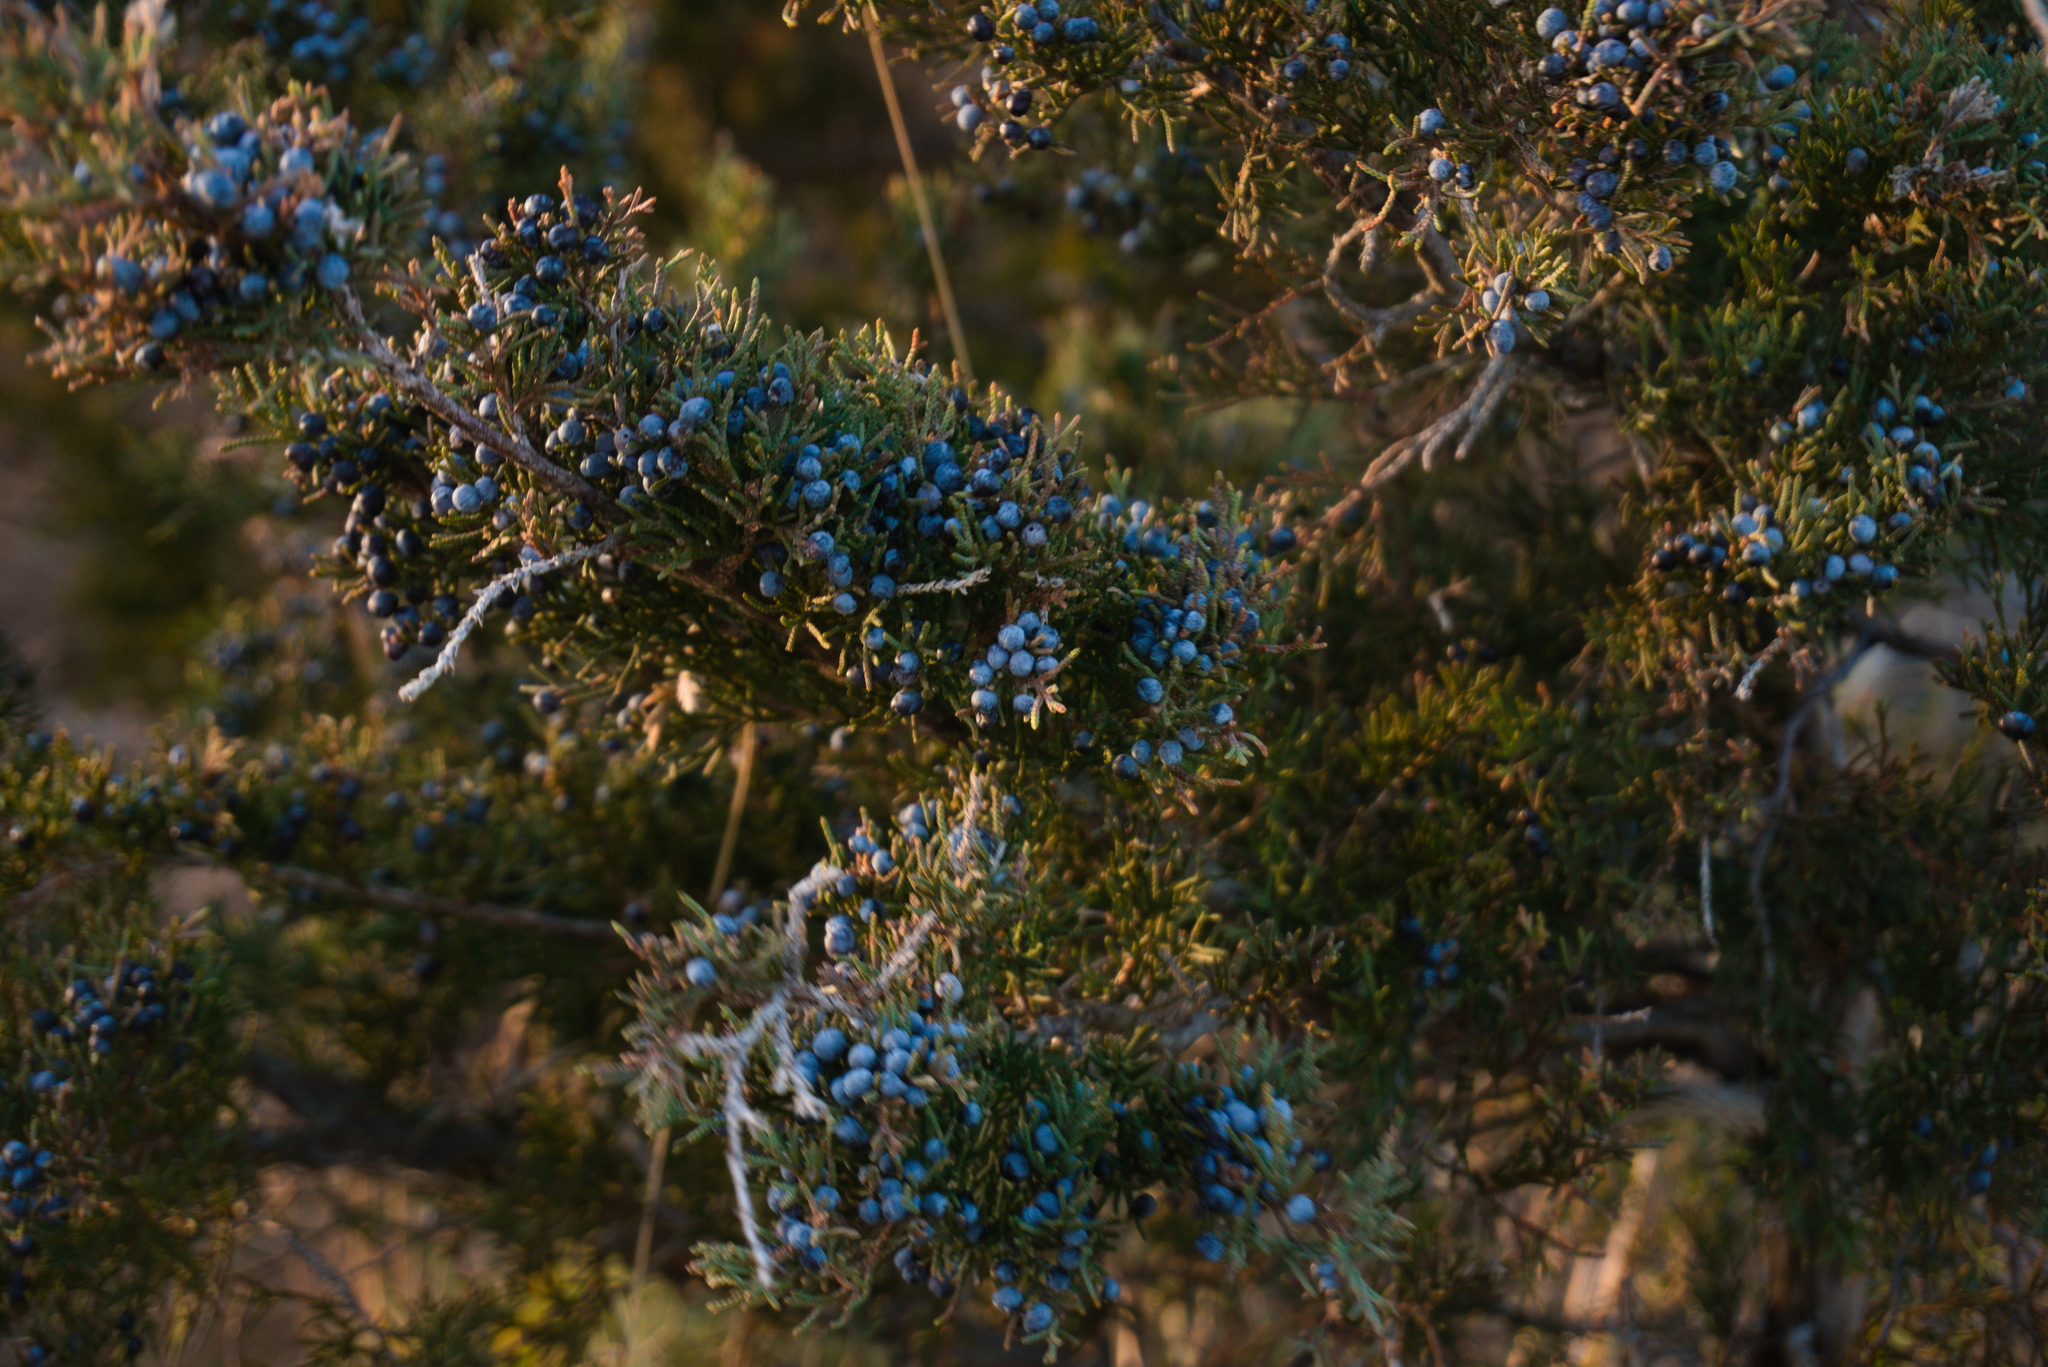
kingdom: Plantae
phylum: Tracheophyta
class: Pinopsida
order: Pinales
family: Cupressaceae
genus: Juniperus
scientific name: Juniperus virginiana
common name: Red juniper
